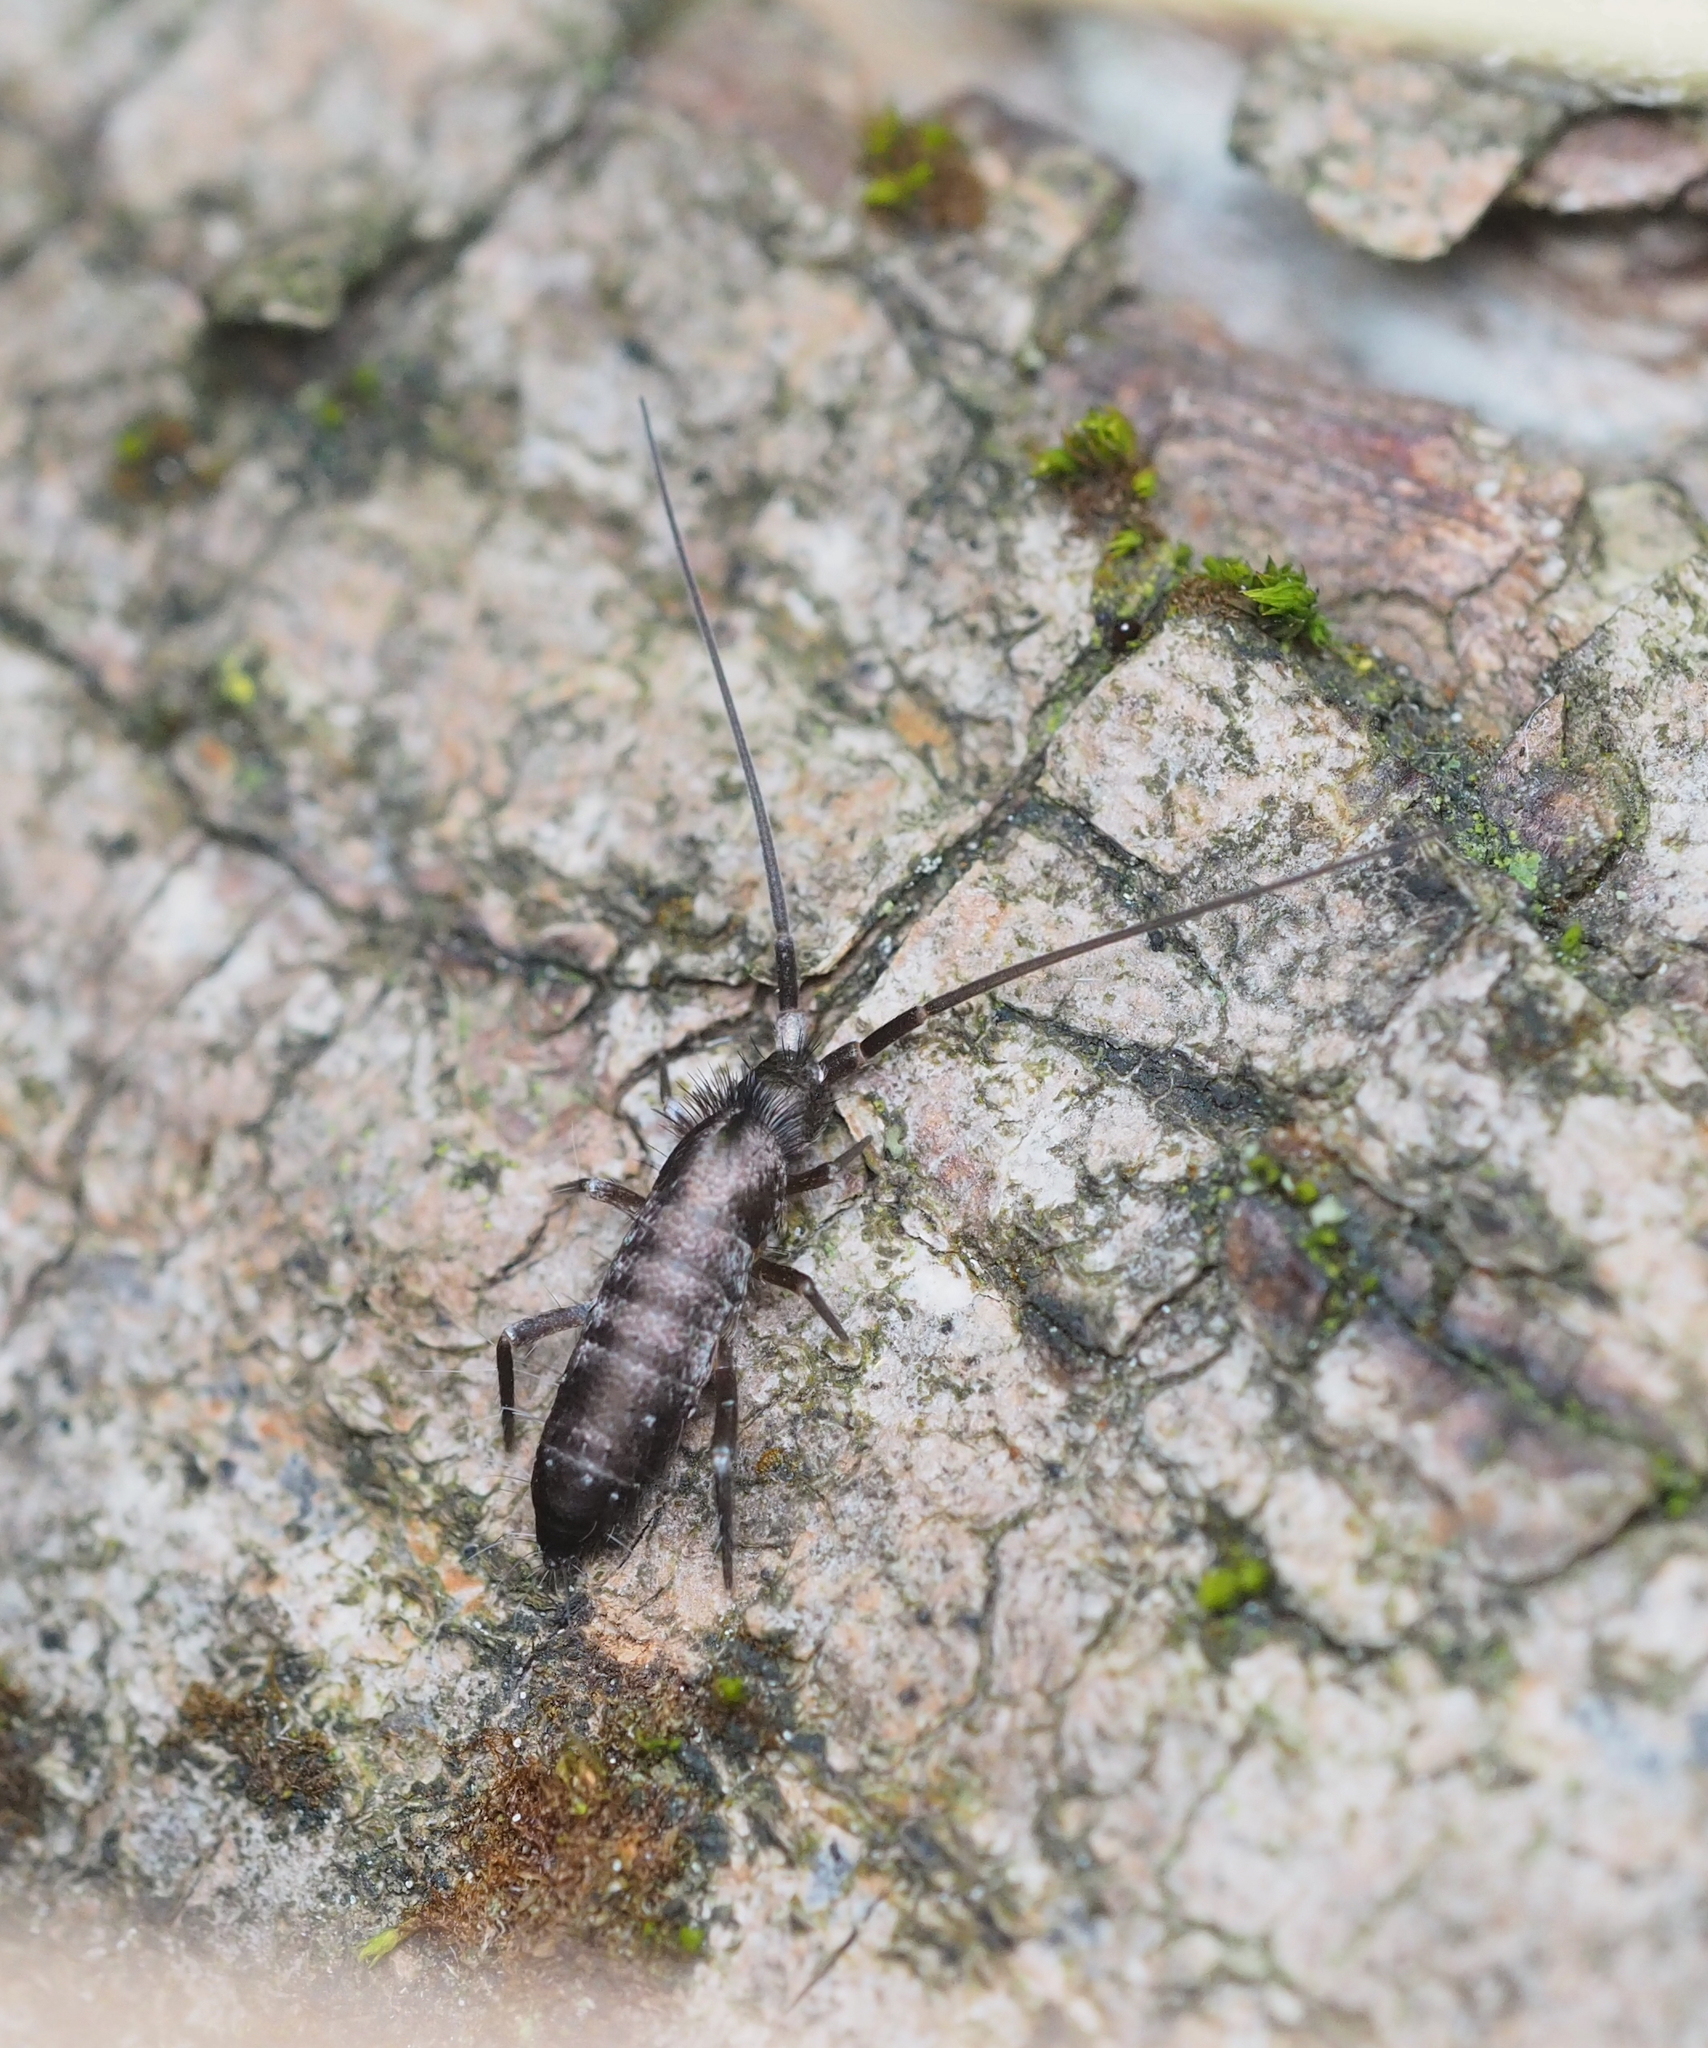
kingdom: Animalia
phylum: Arthropoda
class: Collembola
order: Entomobryomorpha
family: Tomoceridae
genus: Pogonognathellus
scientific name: Pogonognathellus longicornis
